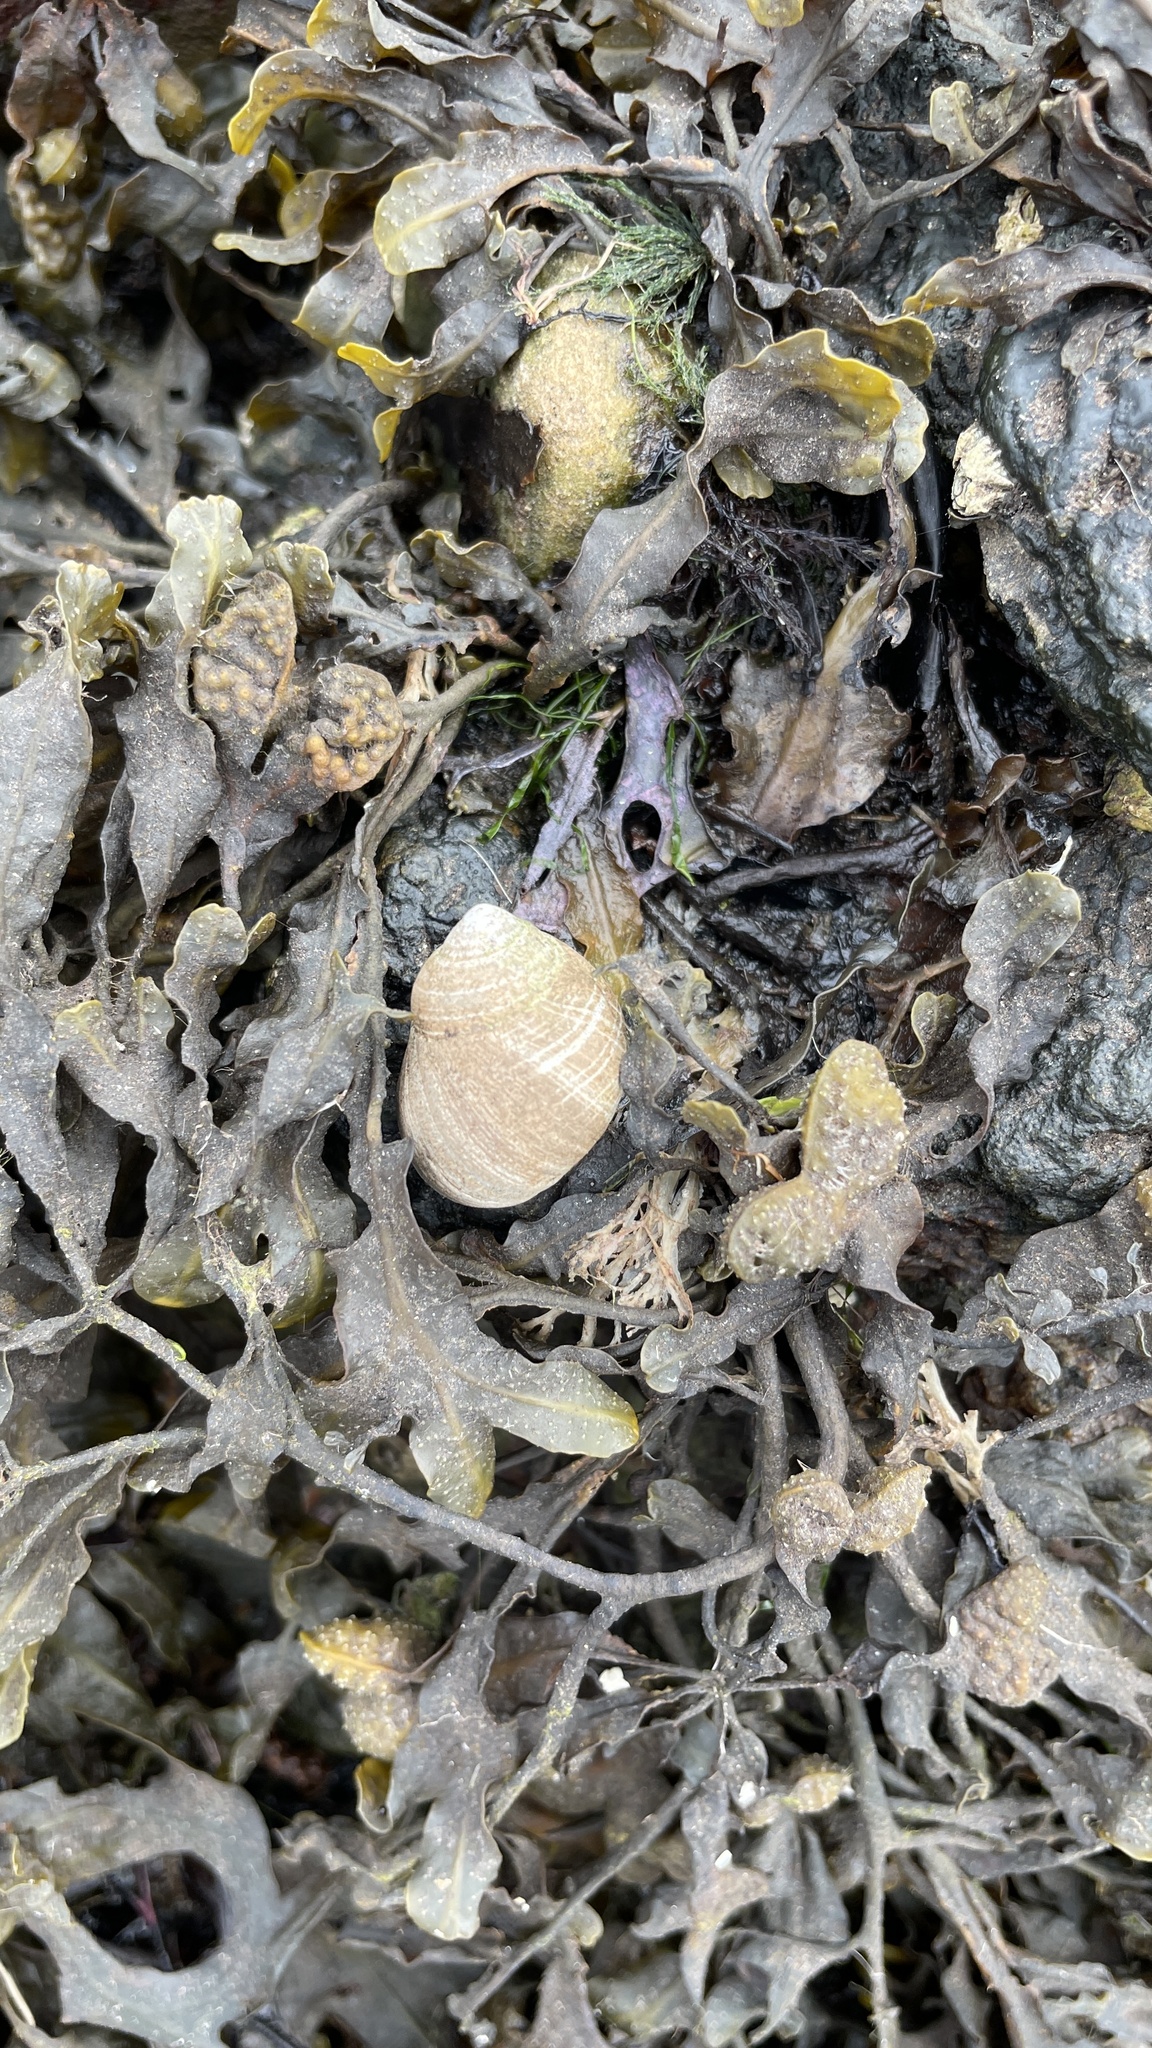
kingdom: Animalia
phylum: Mollusca
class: Gastropoda
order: Littorinimorpha
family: Littorinidae
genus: Littorina
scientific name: Littorina littorea
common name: Common periwinkle
